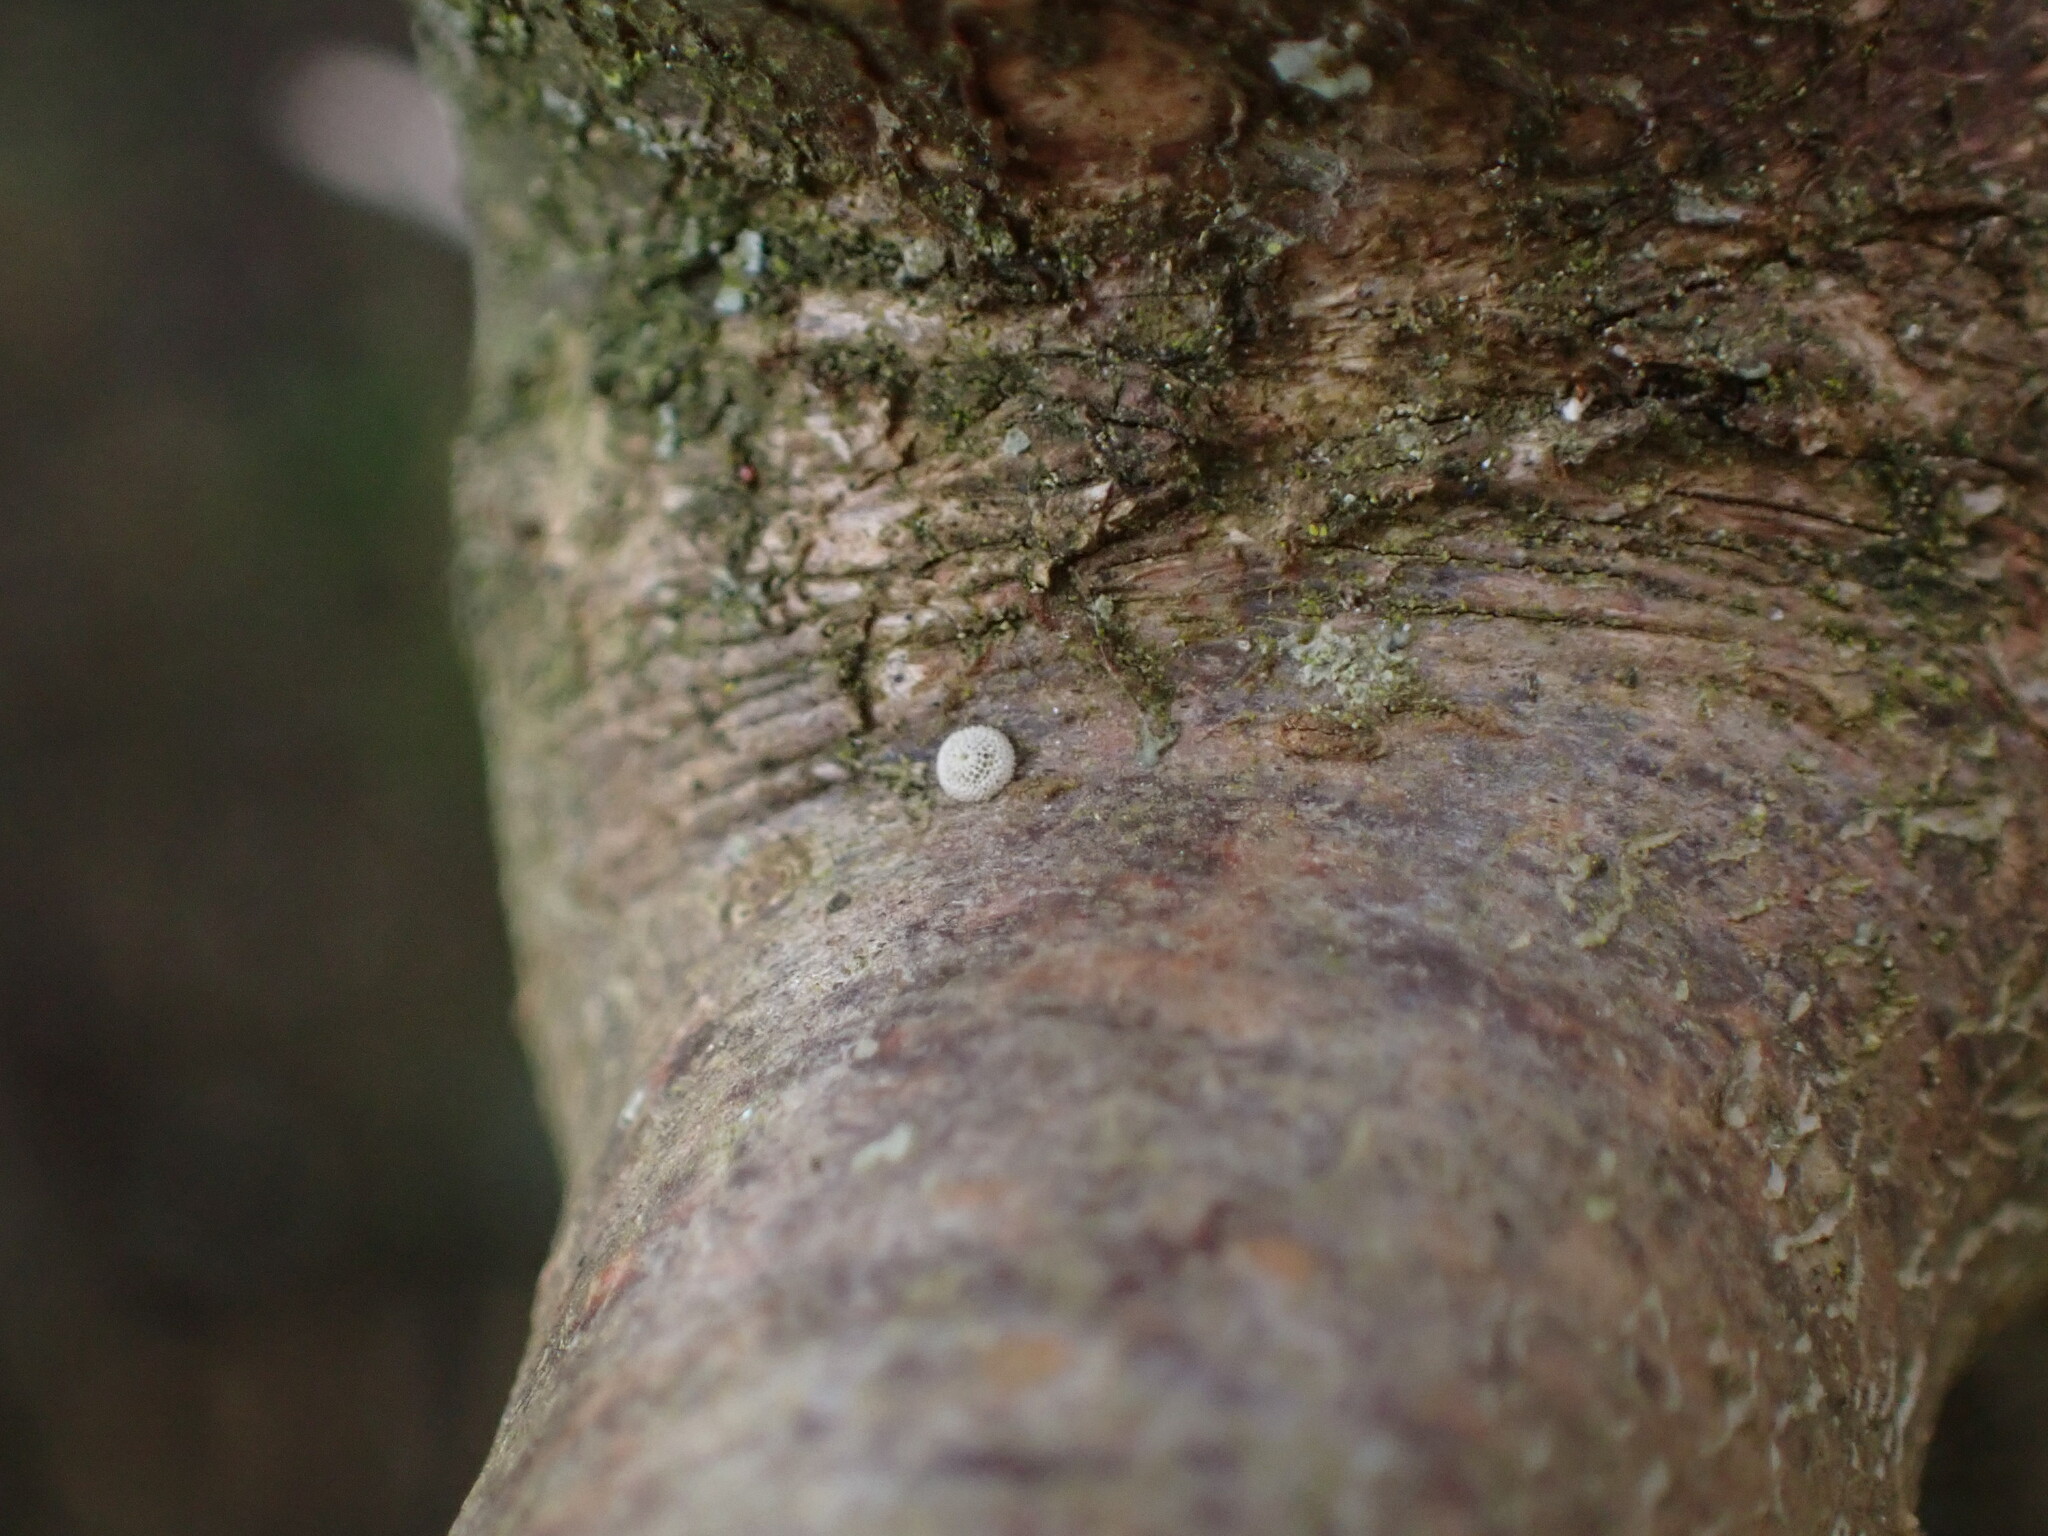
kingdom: Animalia
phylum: Arthropoda
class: Insecta
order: Lepidoptera
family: Lycaenidae
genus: Thecla
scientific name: Thecla betulae
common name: Brown hairstreak
